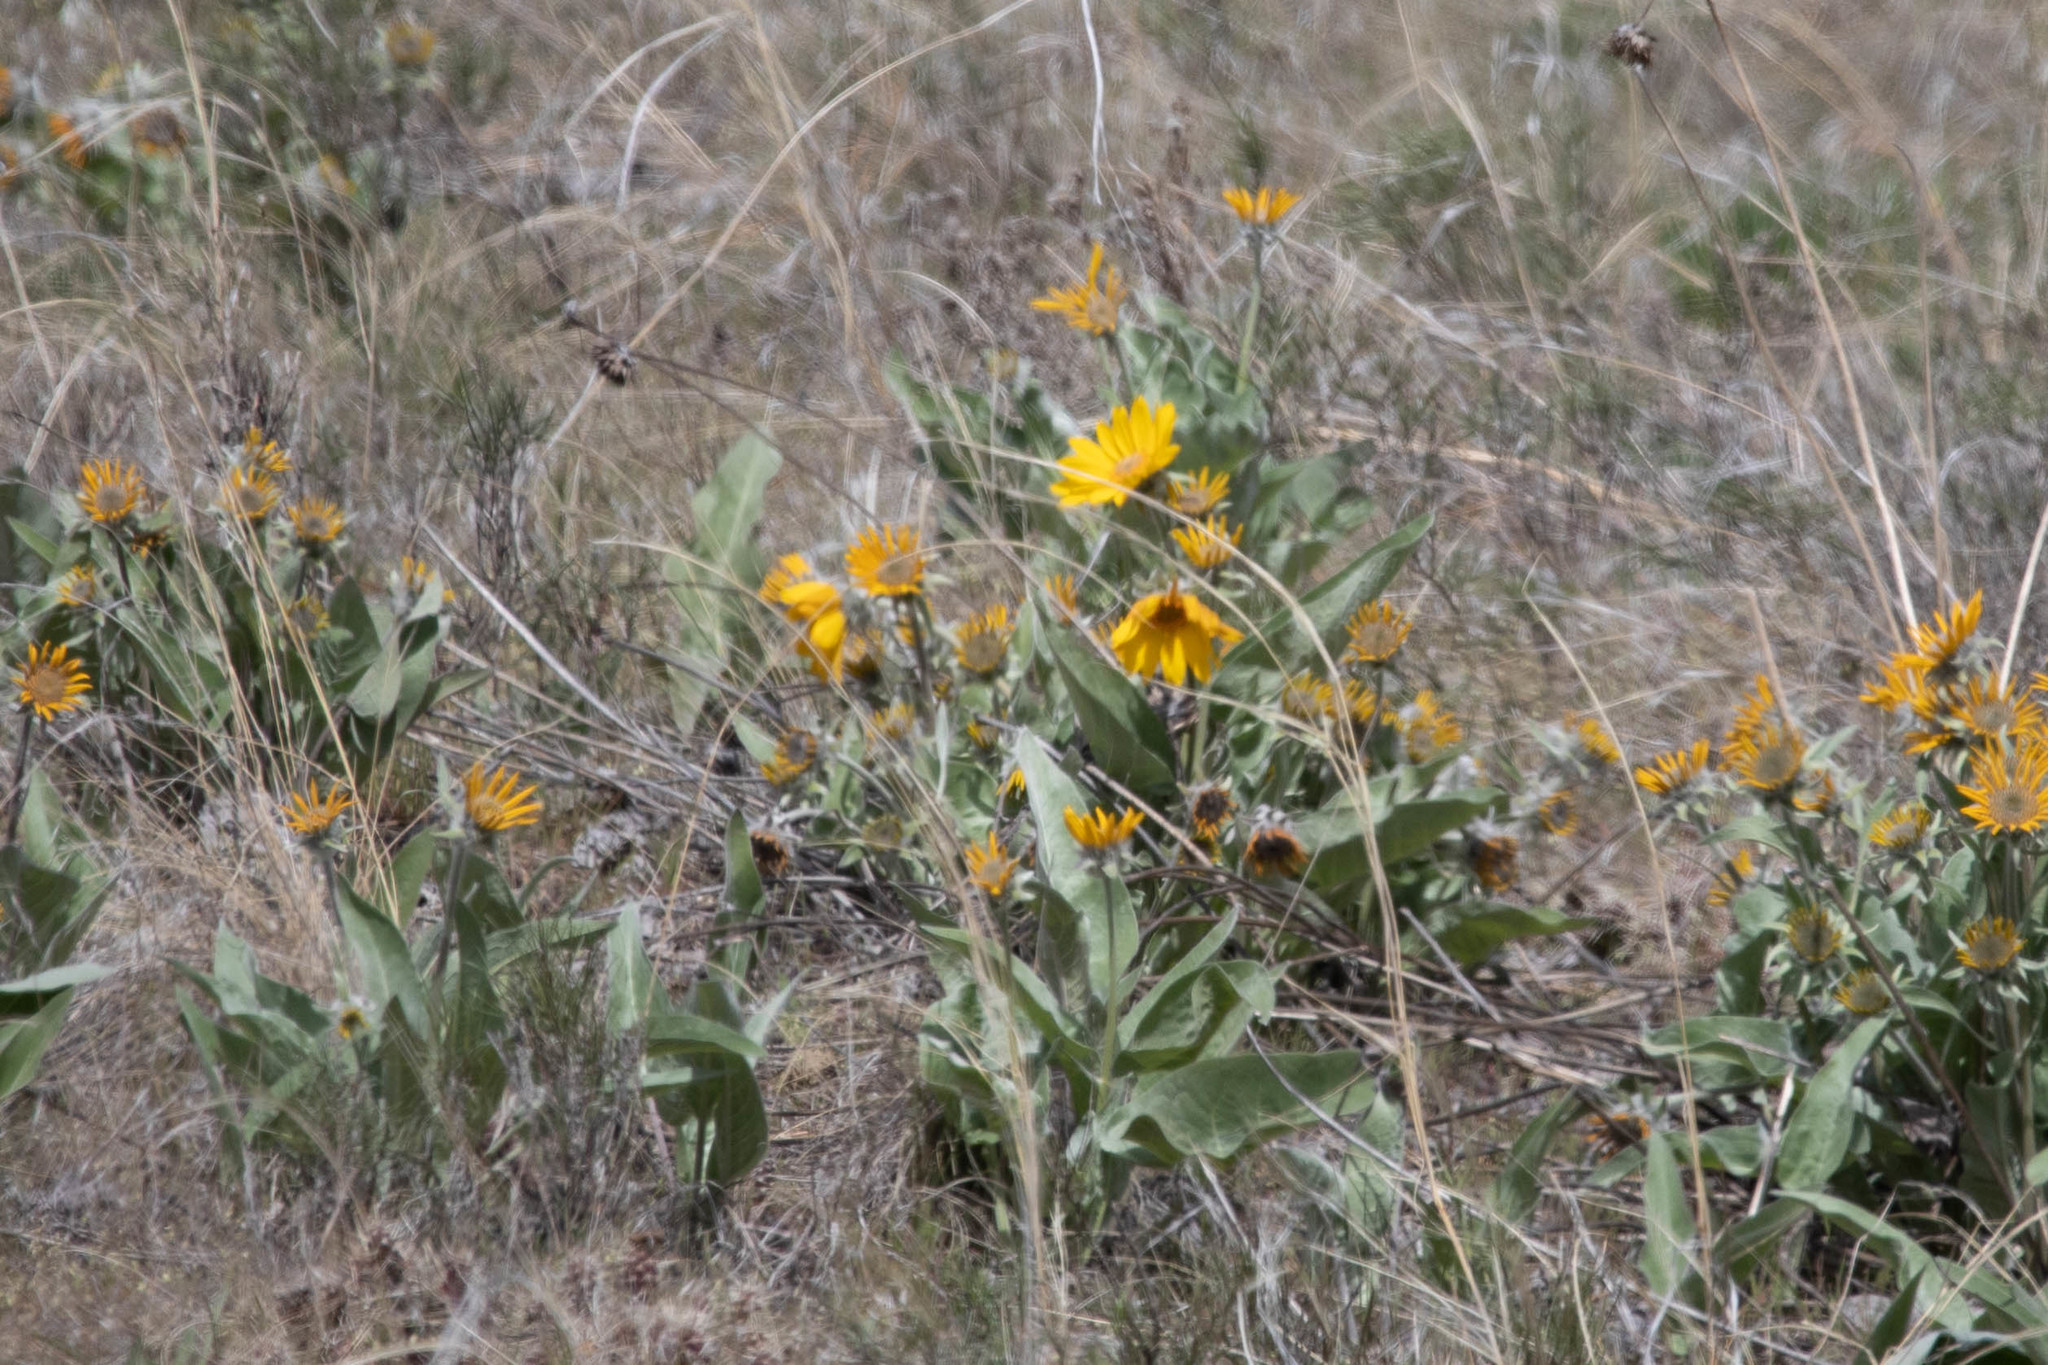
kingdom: Plantae
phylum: Tracheophyta
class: Magnoliopsida
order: Asterales
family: Asteraceae
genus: Wyethia
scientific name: Wyethia sagittata
